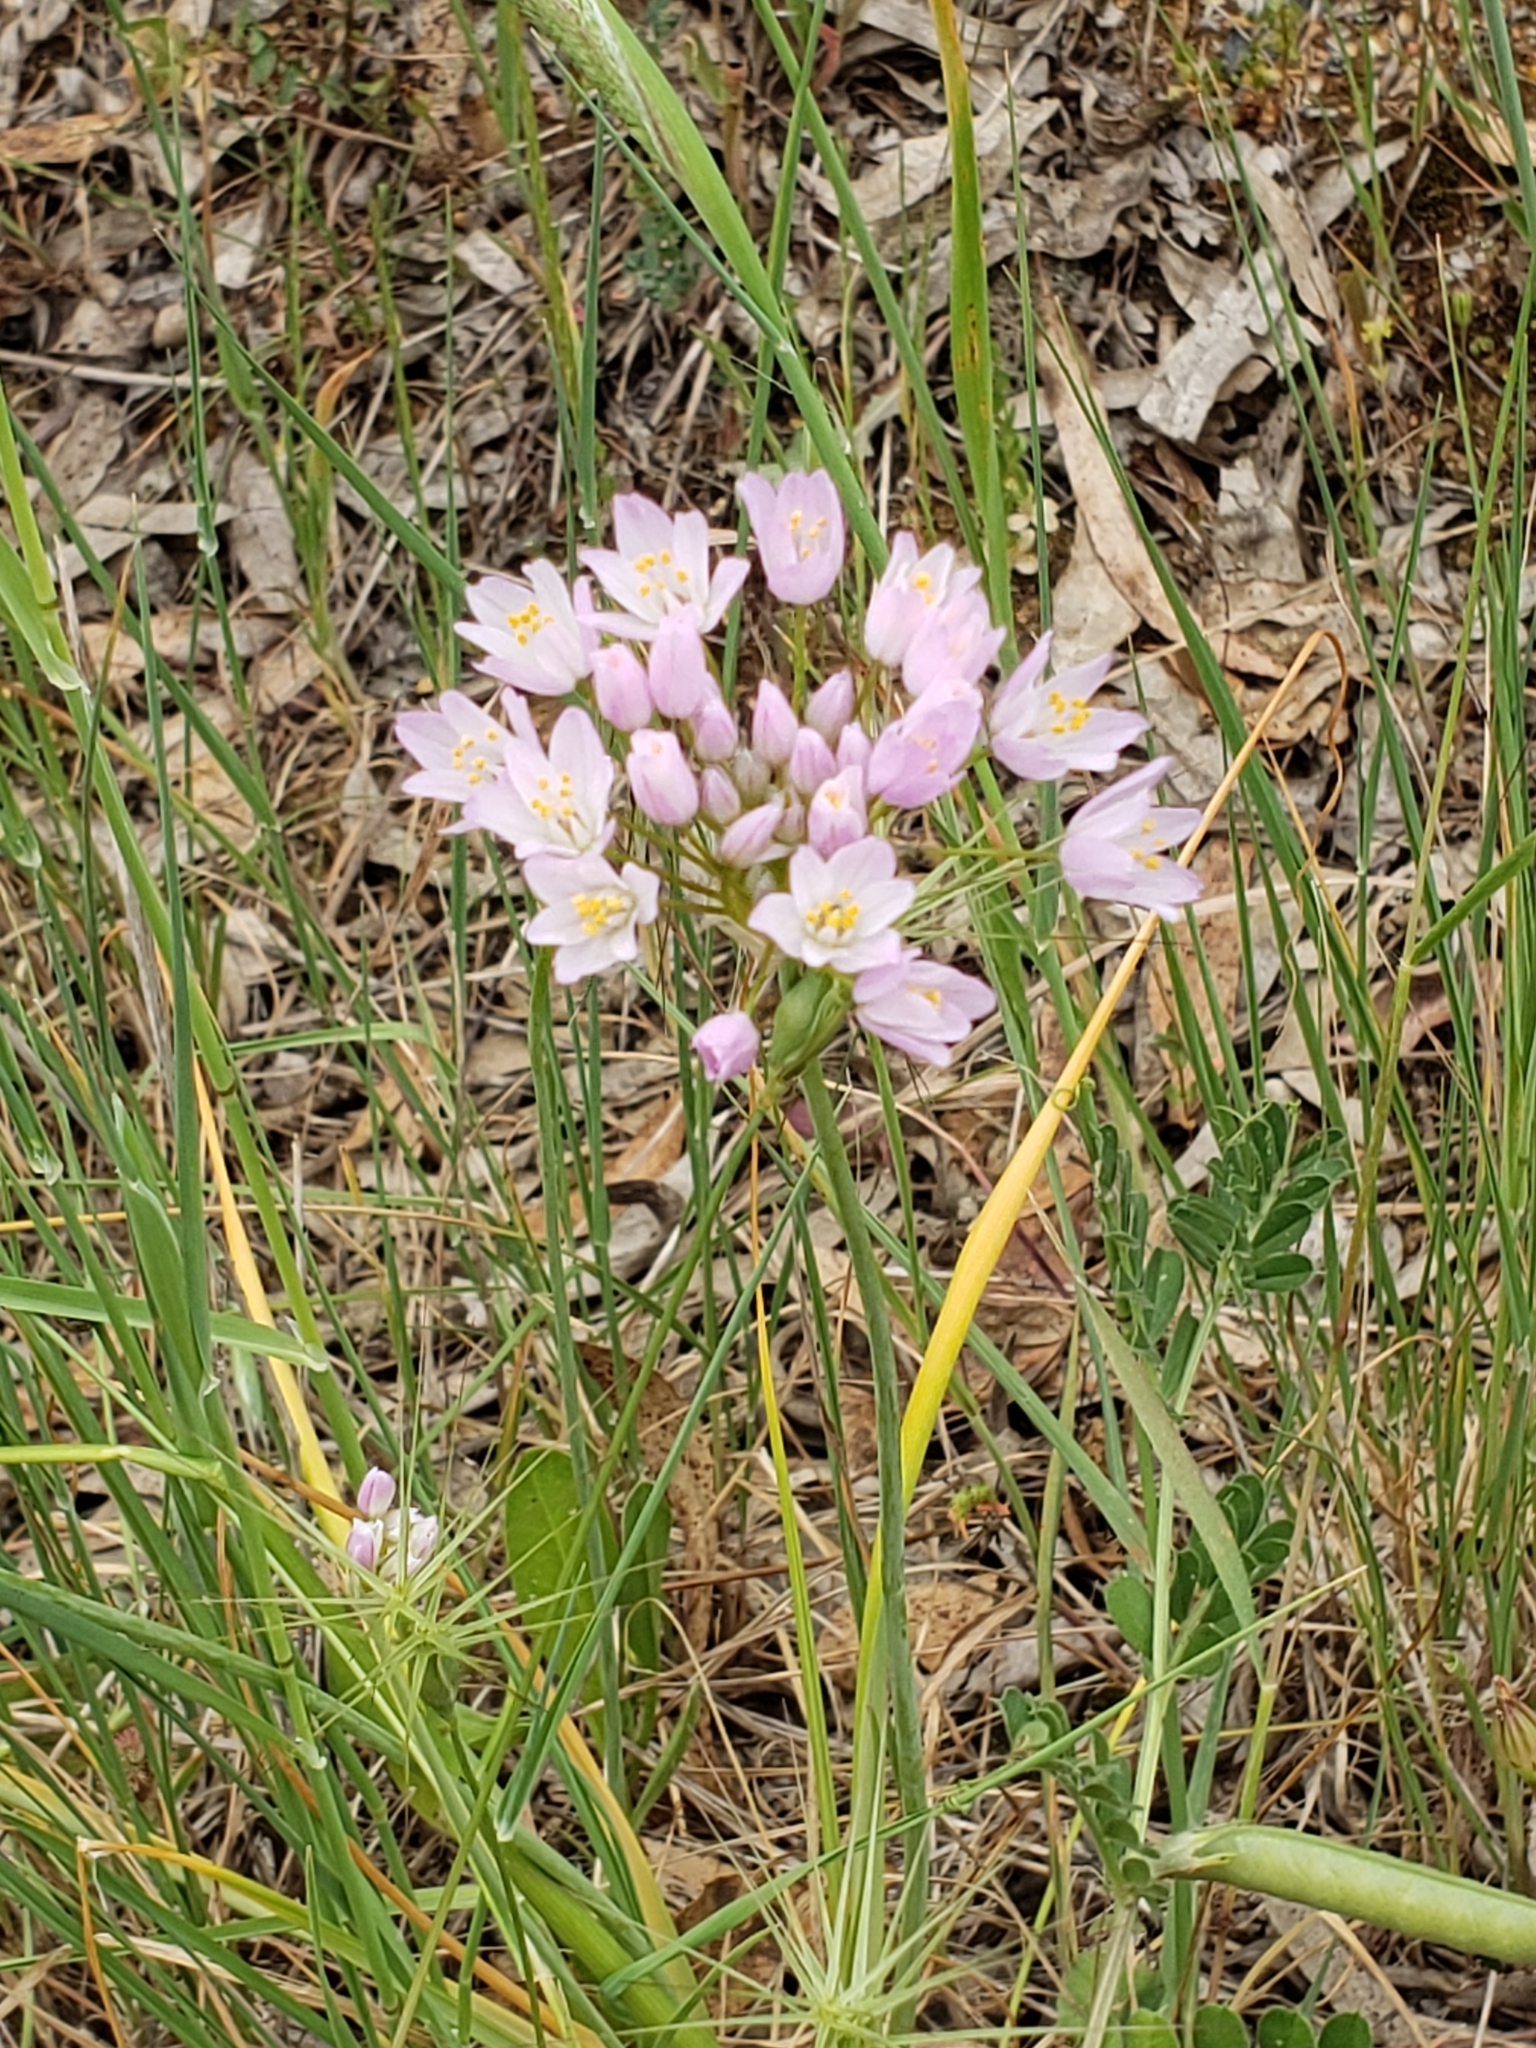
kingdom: Plantae
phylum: Tracheophyta
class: Liliopsida
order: Asparagales
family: Amaryllidaceae
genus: Allium
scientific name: Allium roseum
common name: Rosy garlic
